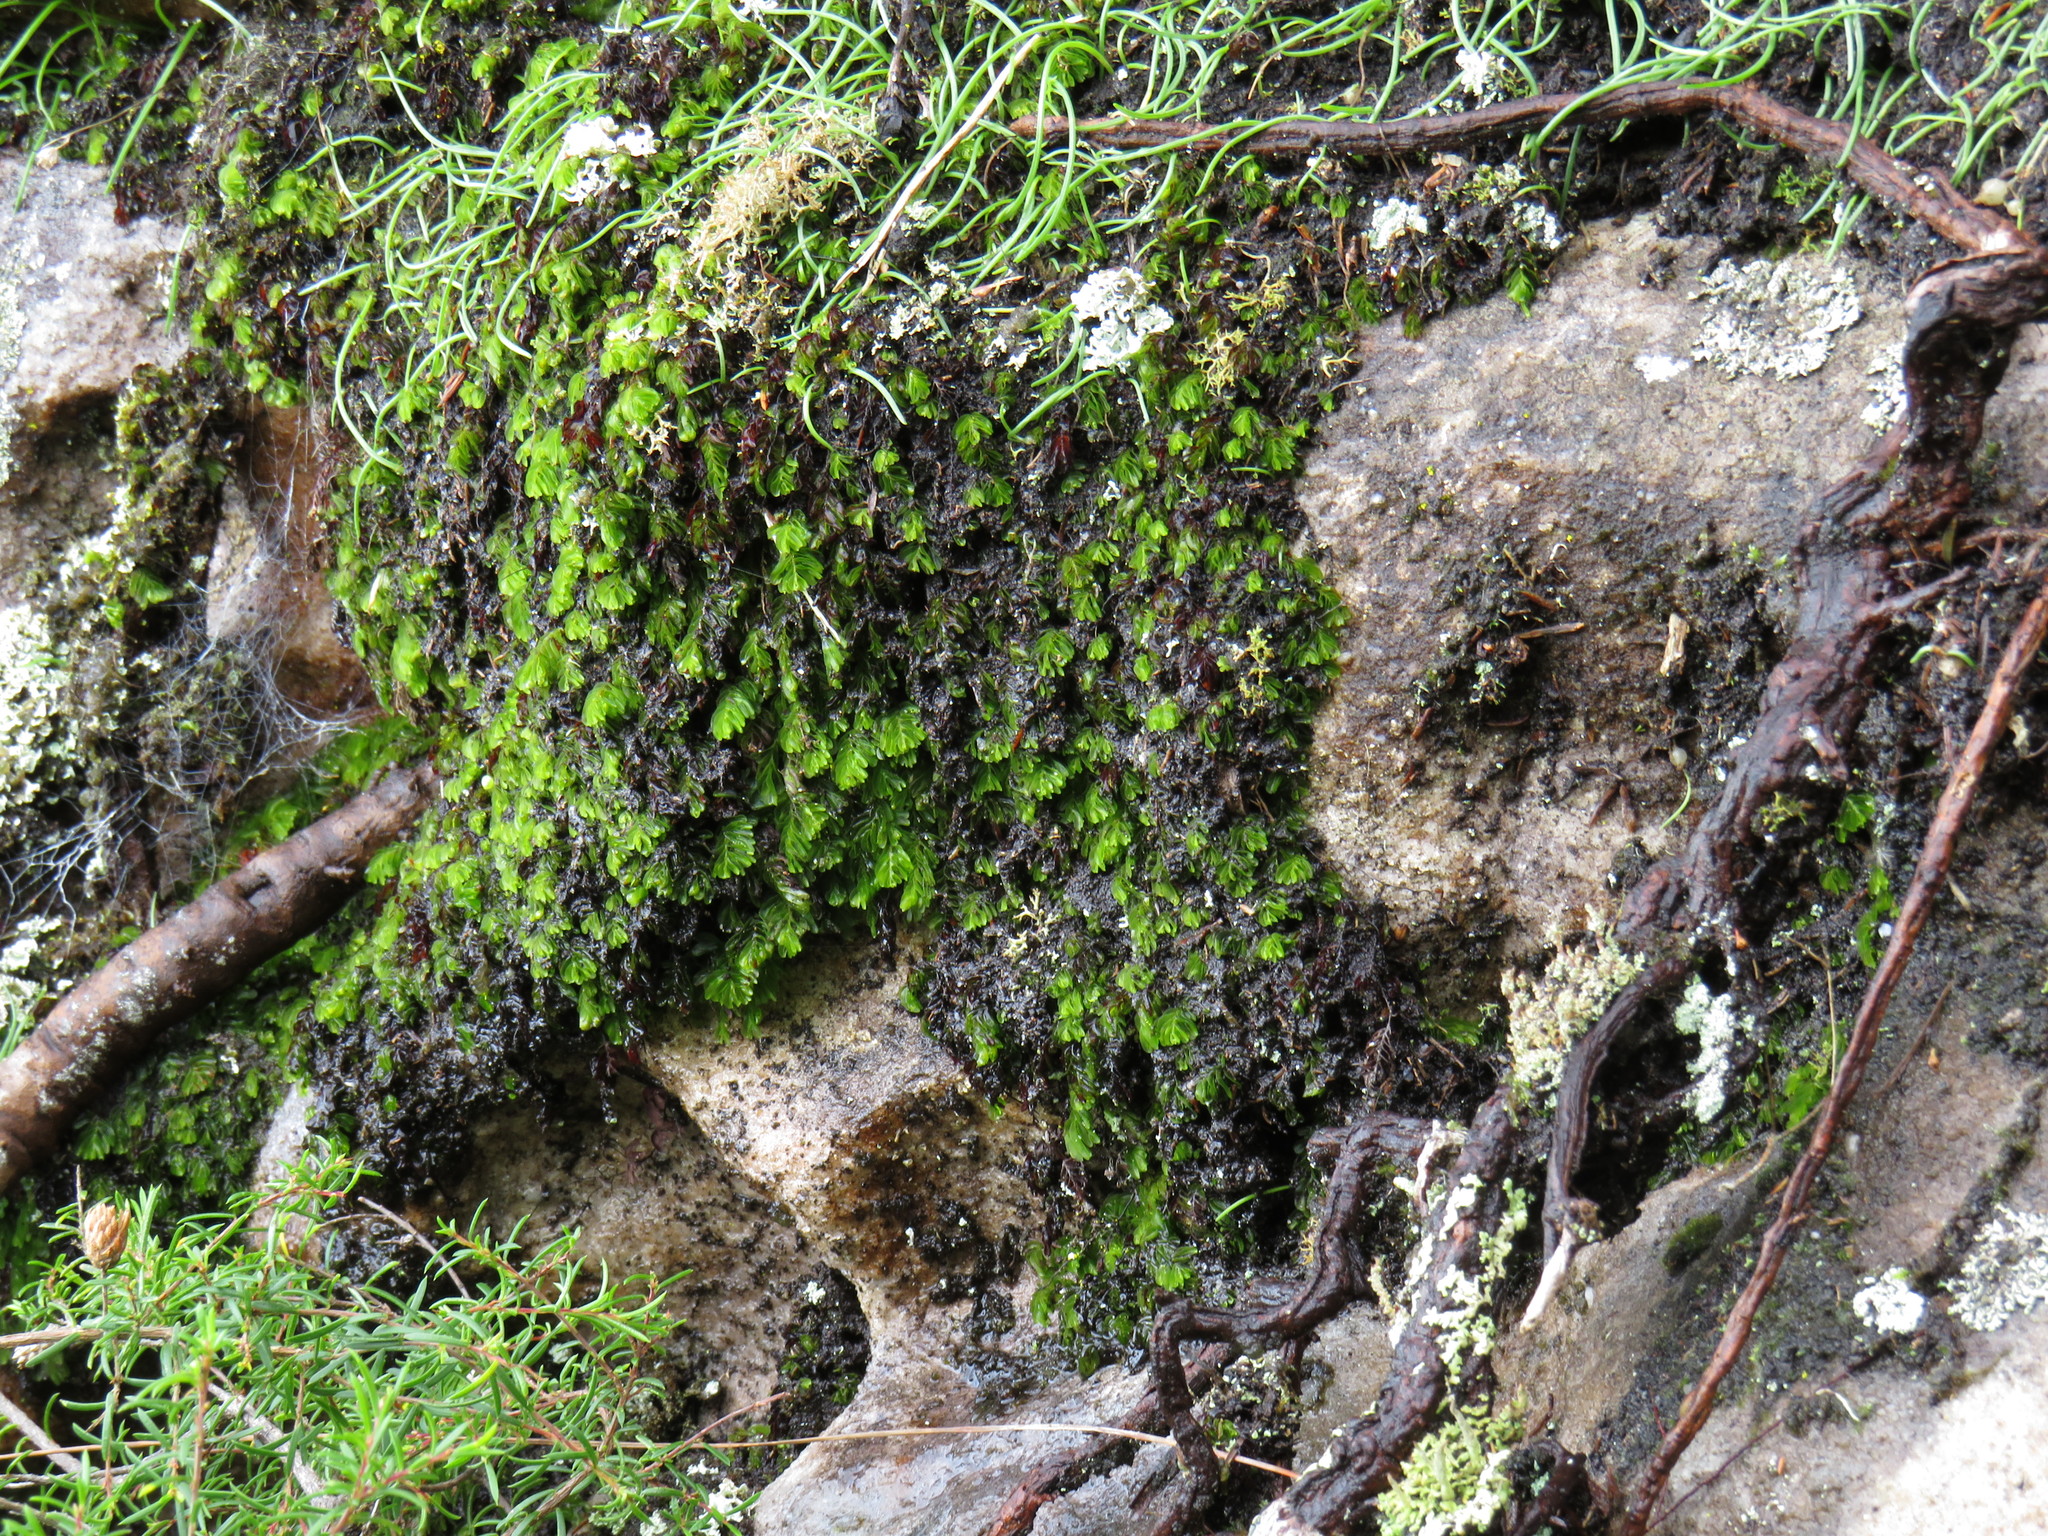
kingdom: Plantae
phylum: Tracheophyta
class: Liliopsida
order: Asparagales
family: Asparagaceae
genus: Ornithogalum
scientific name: Ornithogalum niveum
